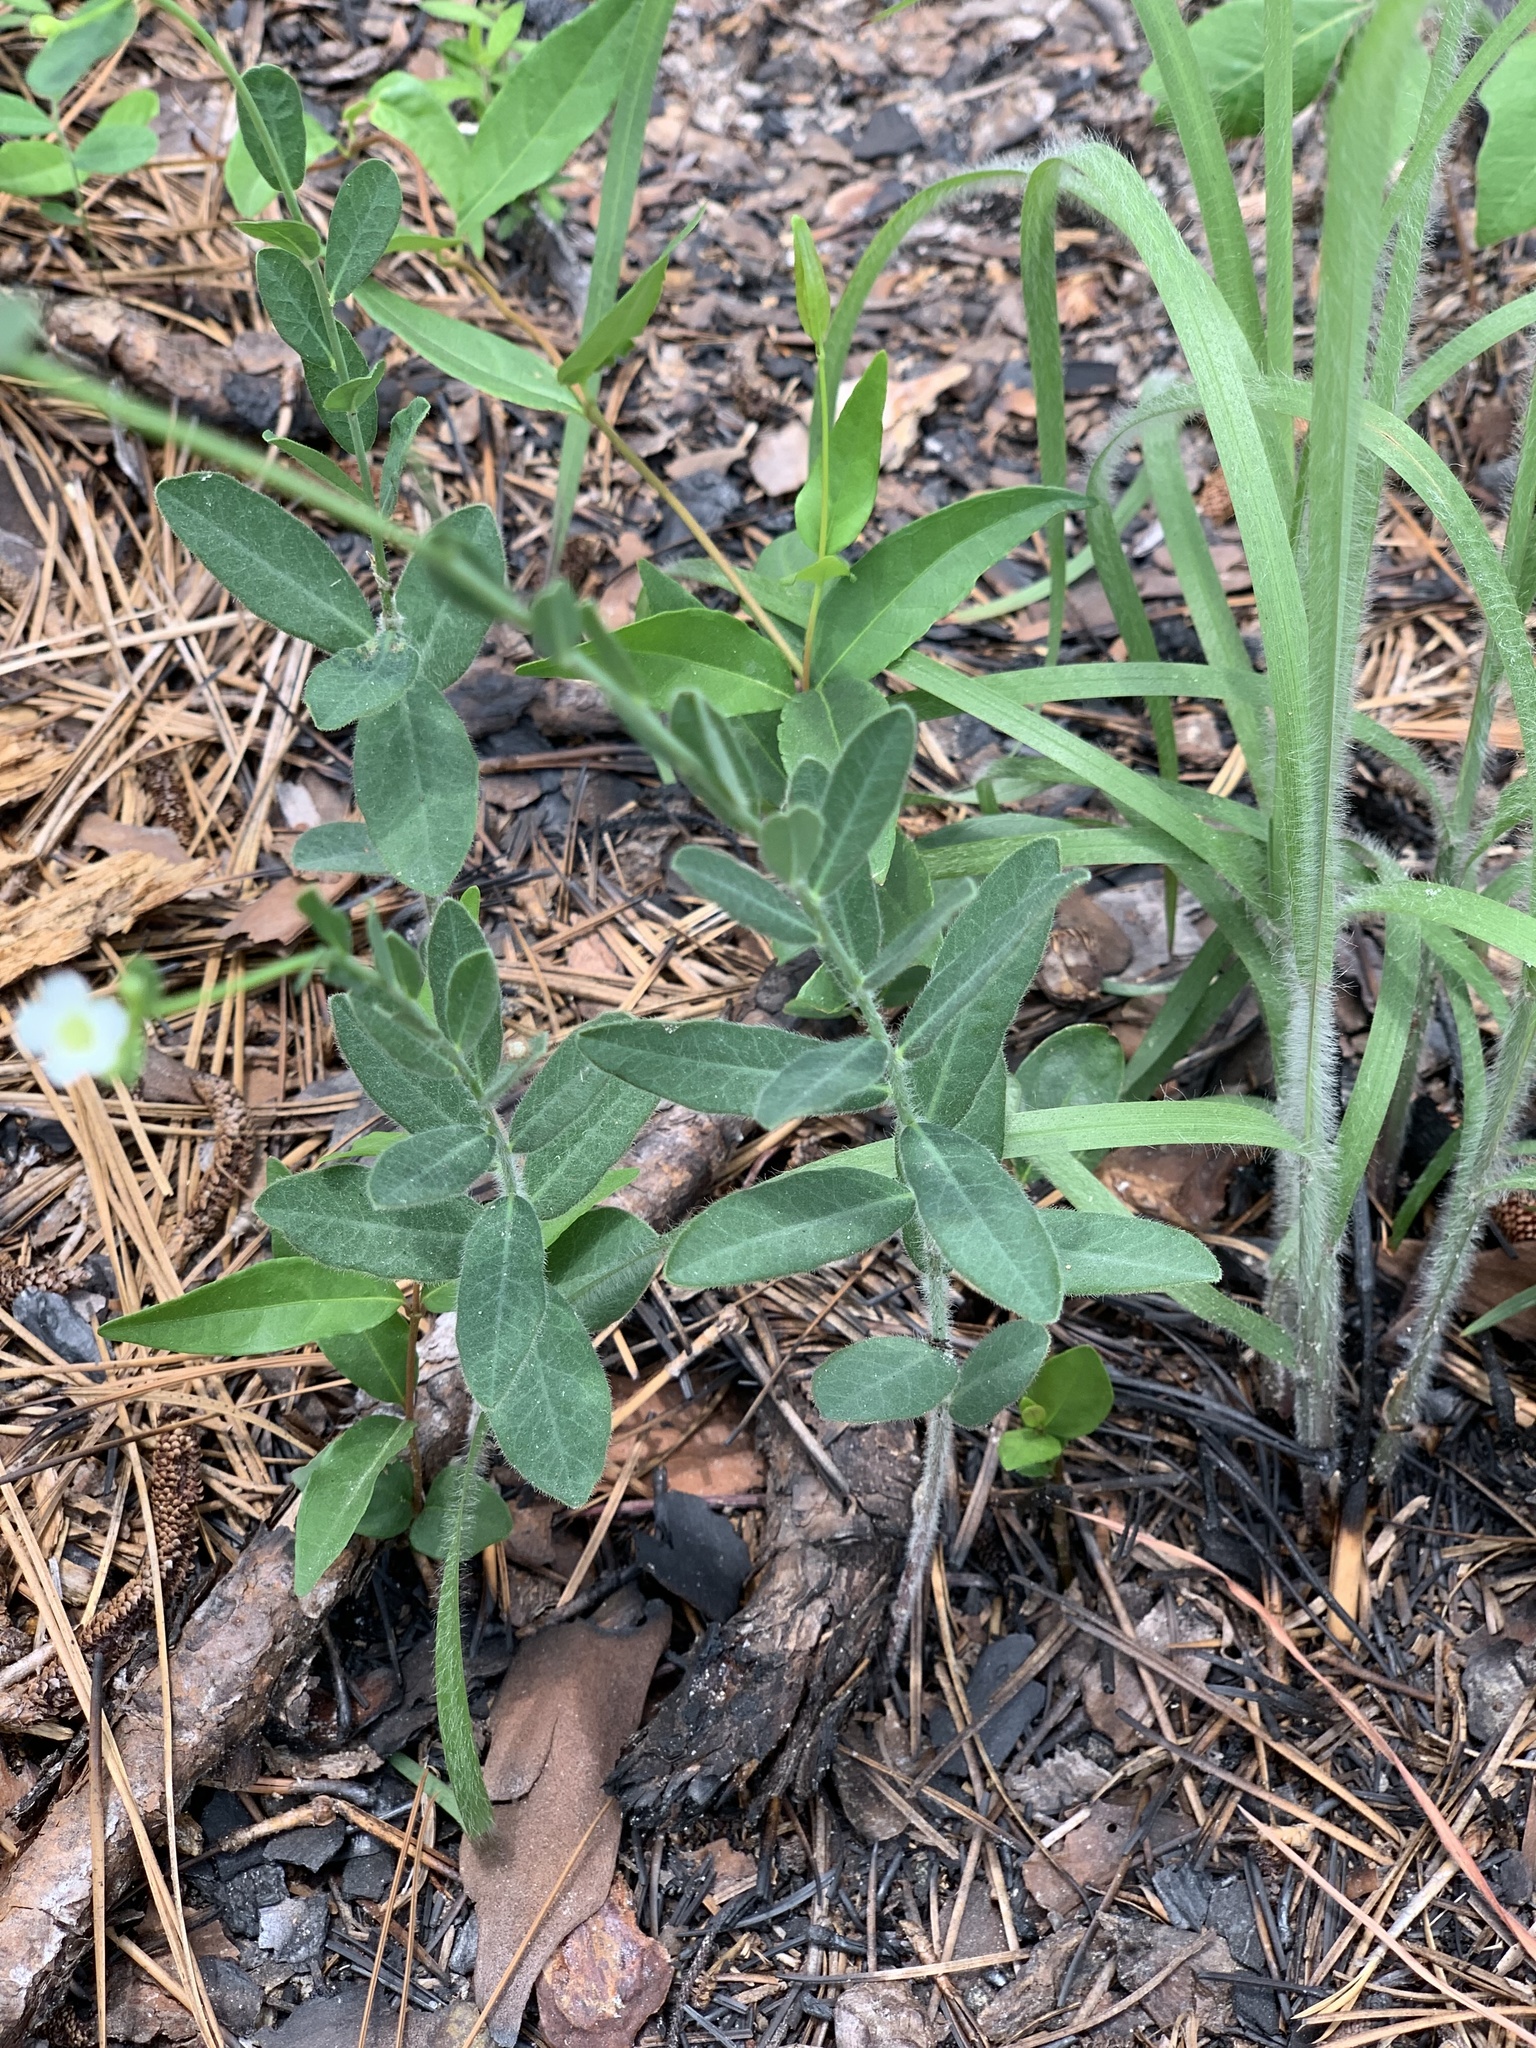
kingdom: Plantae
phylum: Tracheophyta
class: Magnoliopsida
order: Malpighiales
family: Euphorbiaceae
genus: Euphorbia
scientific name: Euphorbia corollata
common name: Flowering spurge
